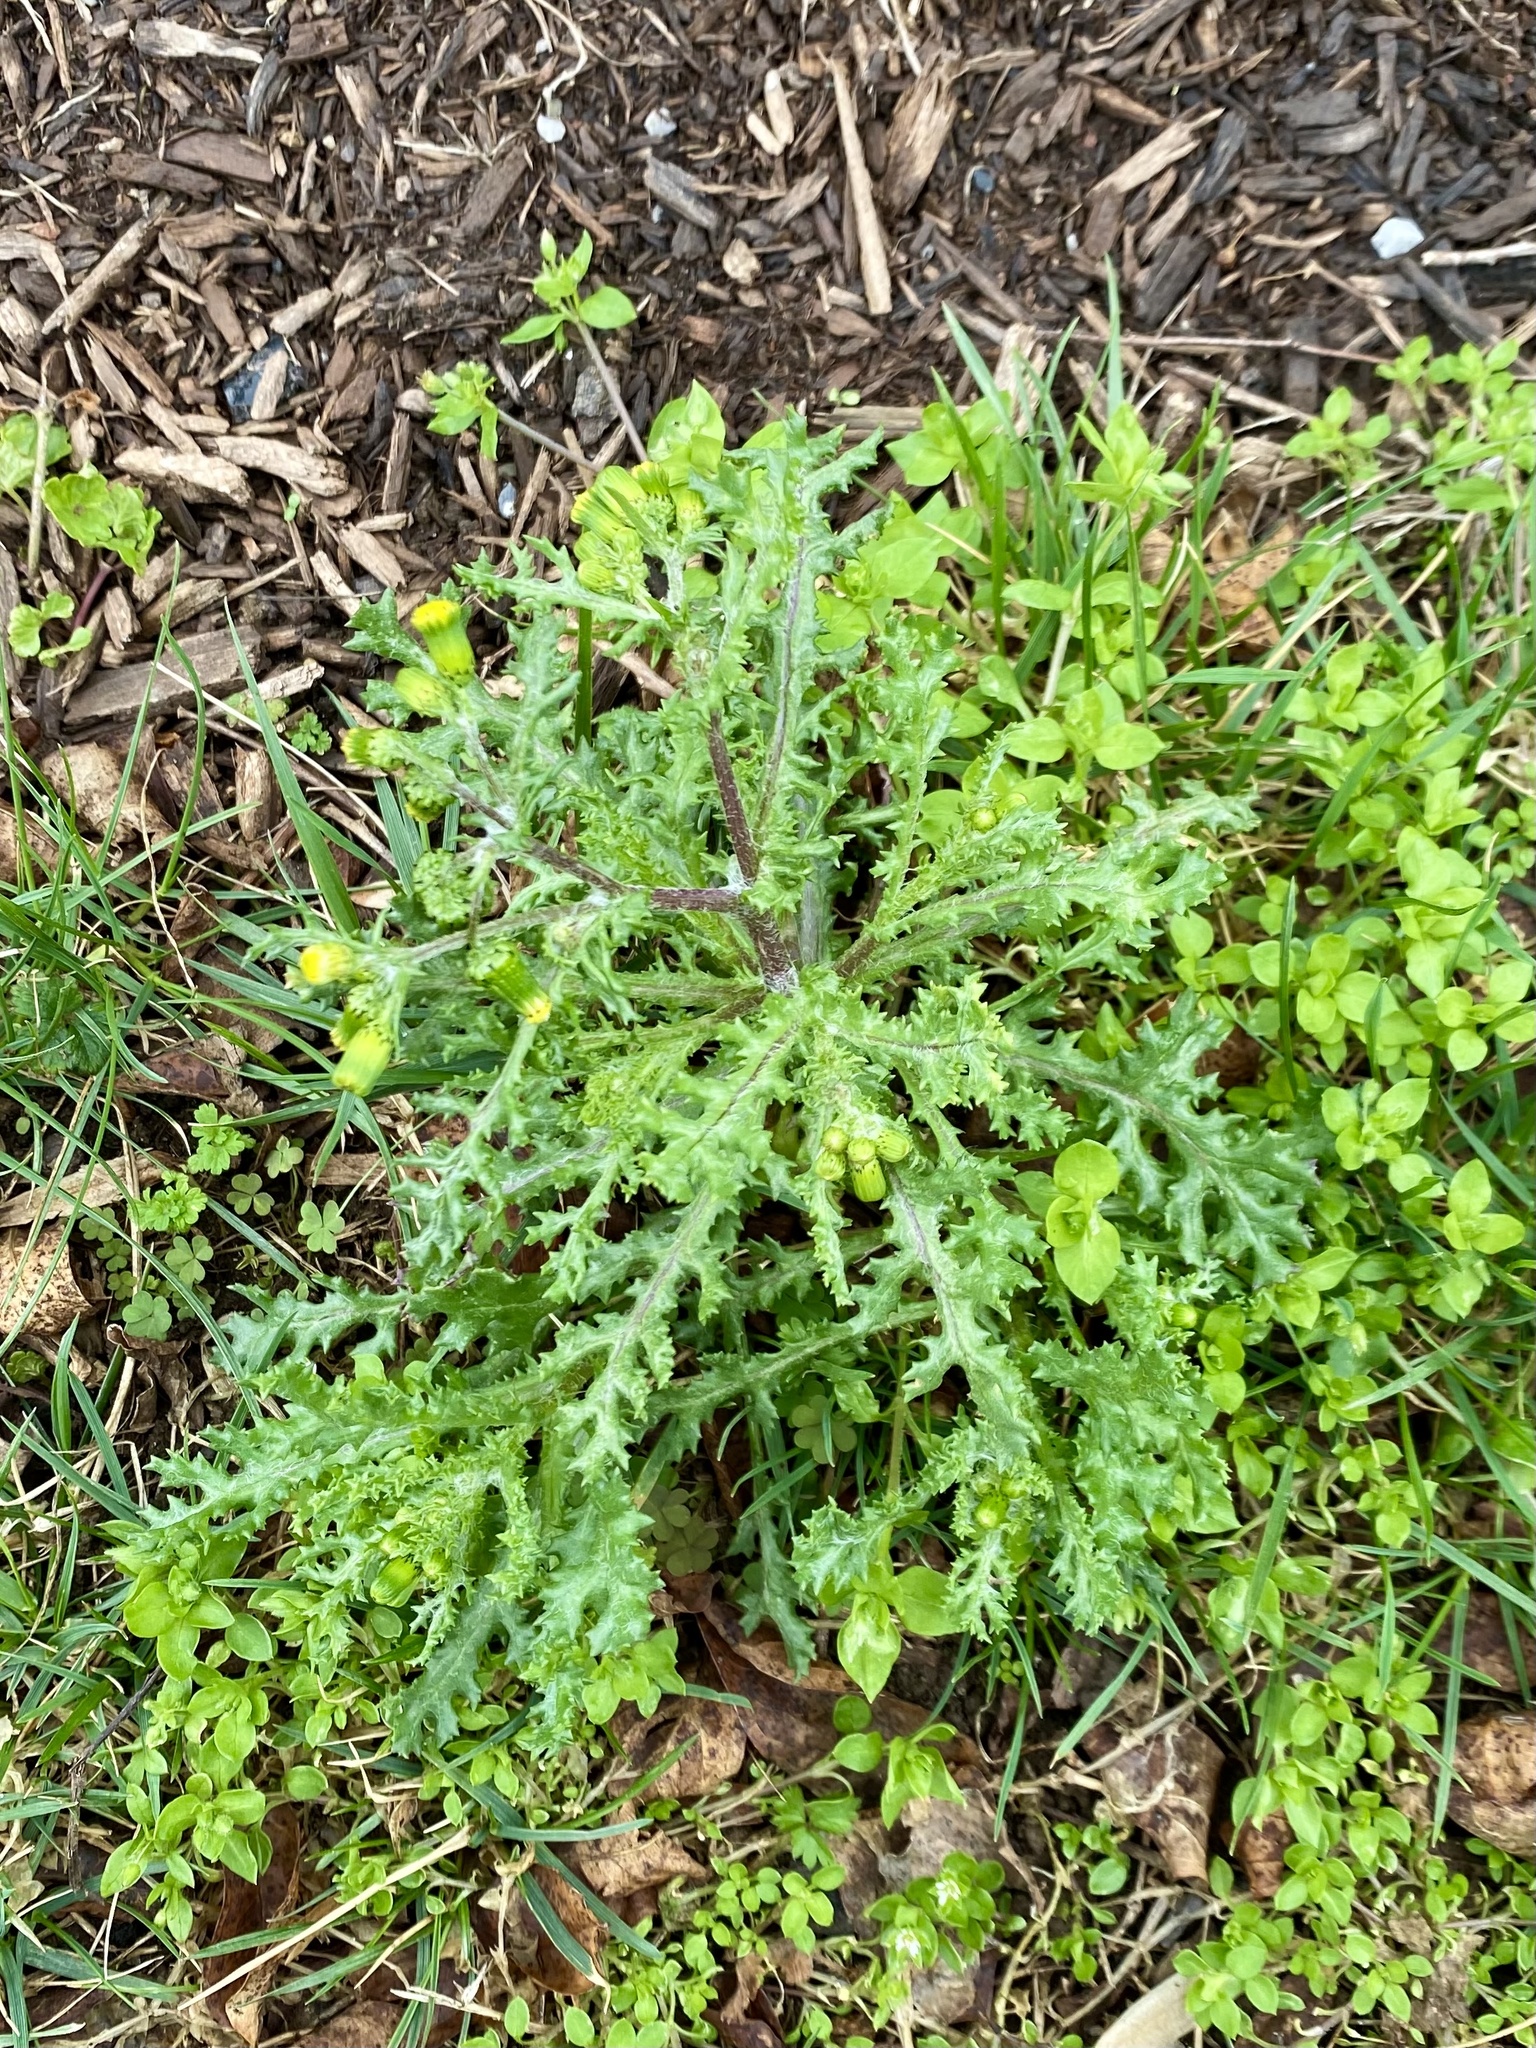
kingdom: Plantae
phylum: Tracheophyta
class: Magnoliopsida
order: Asterales
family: Asteraceae
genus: Senecio
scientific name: Senecio vulgaris
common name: Old-man-in-the-spring
